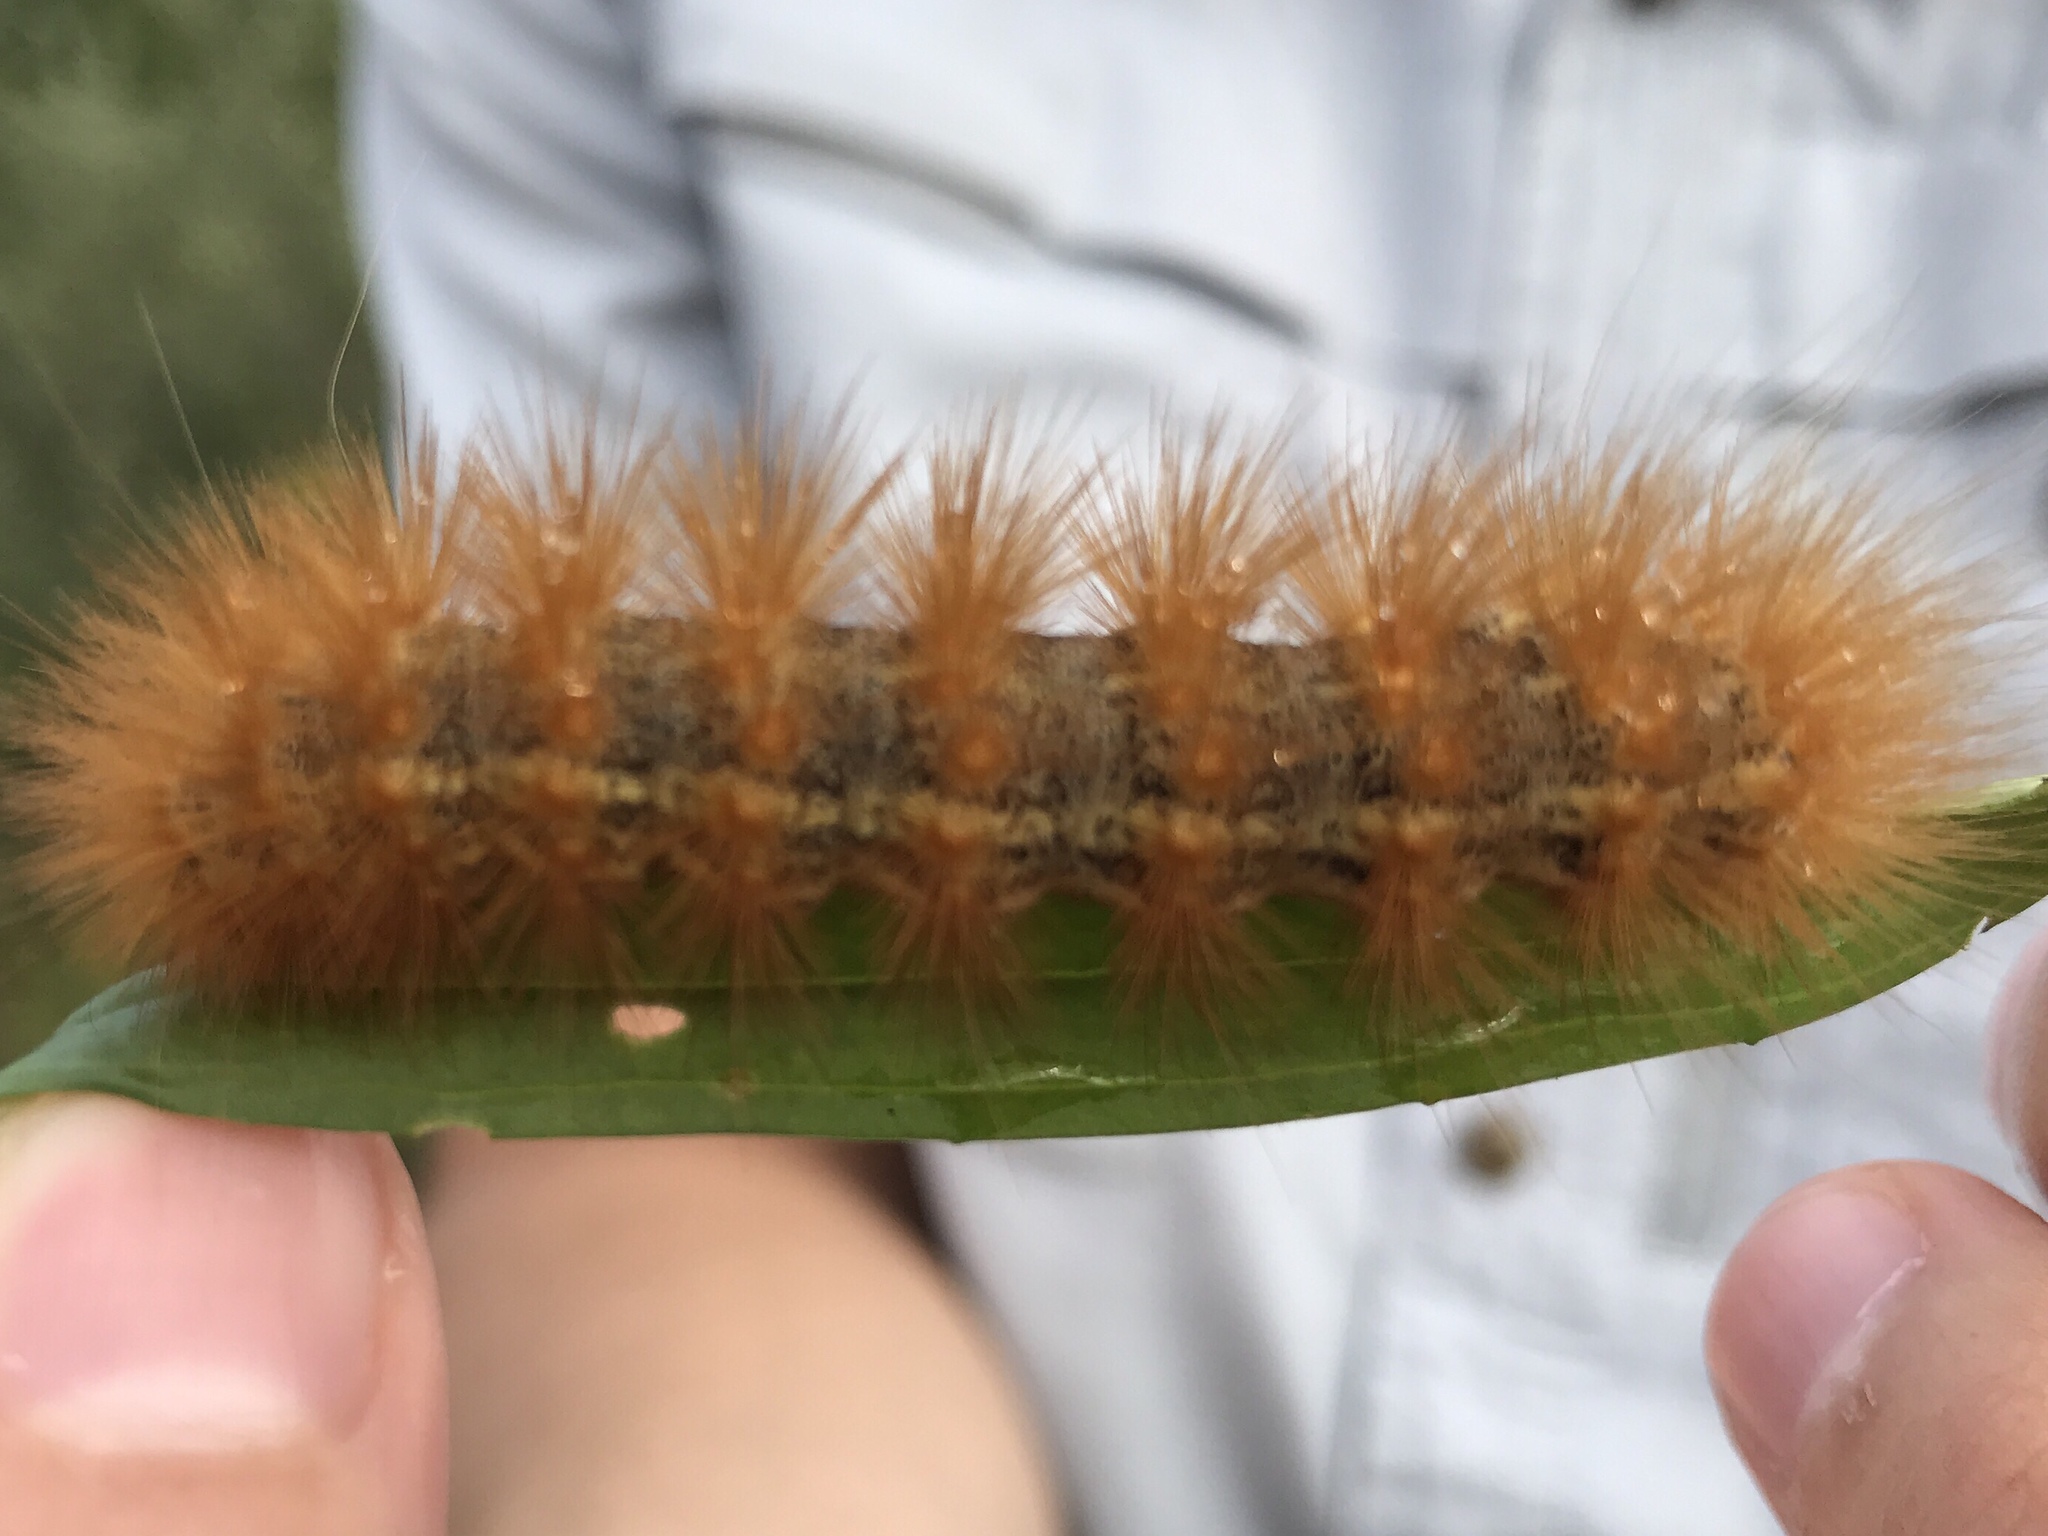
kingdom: Animalia
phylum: Arthropoda
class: Insecta
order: Lepidoptera
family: Erebidae
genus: Estigmene
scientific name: Estigmene acrea
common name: Salt marsh moth
